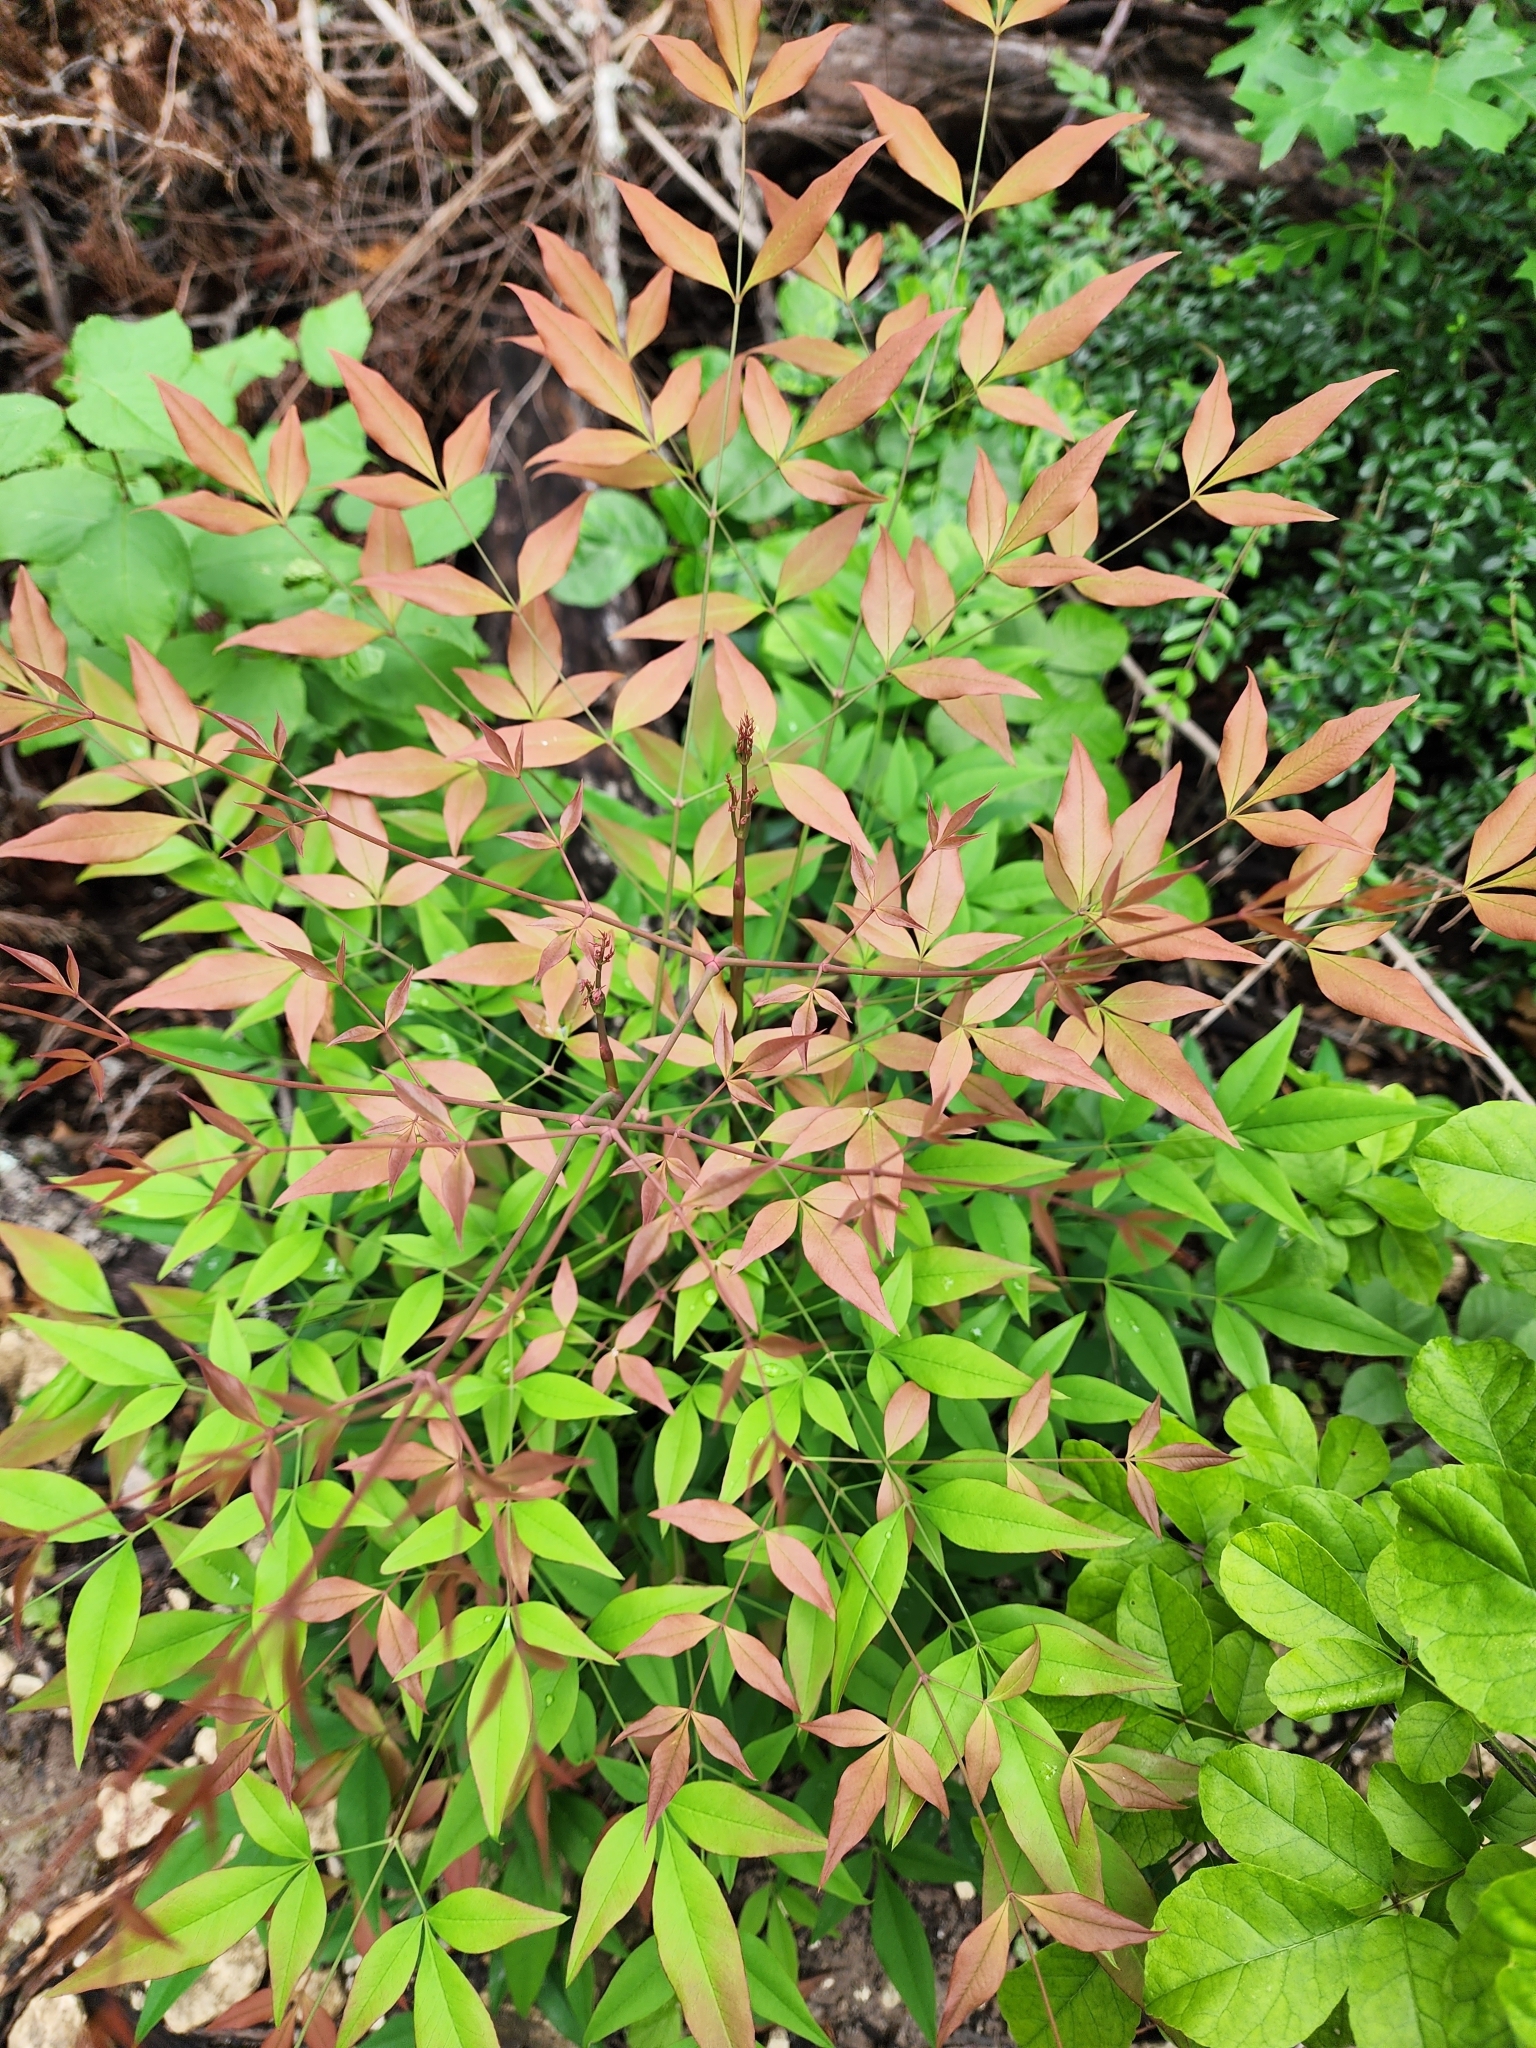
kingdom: Plantae
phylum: Tracheophyta
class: Magnoliopsida
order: Ranunculales
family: Berberidaceae
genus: Nandina
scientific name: Nandina domestica
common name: Sacred bamboo
